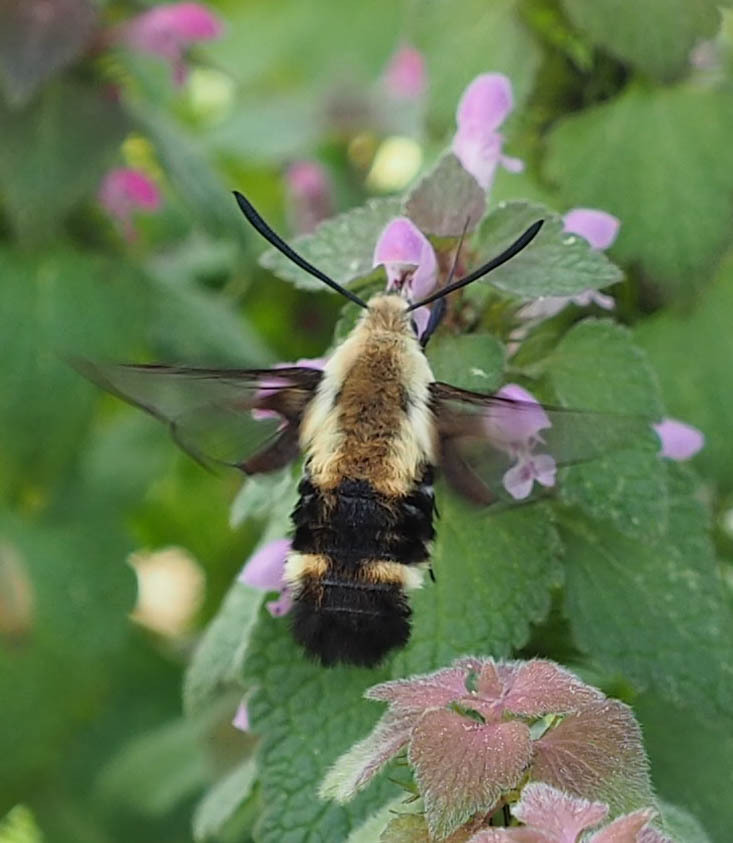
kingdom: Animalia
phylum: Arthropoda
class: Insecta
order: Lepidoptera
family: Sphingidae
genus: Hemaris
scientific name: Hemaris diffinis
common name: Bumblebee moth
